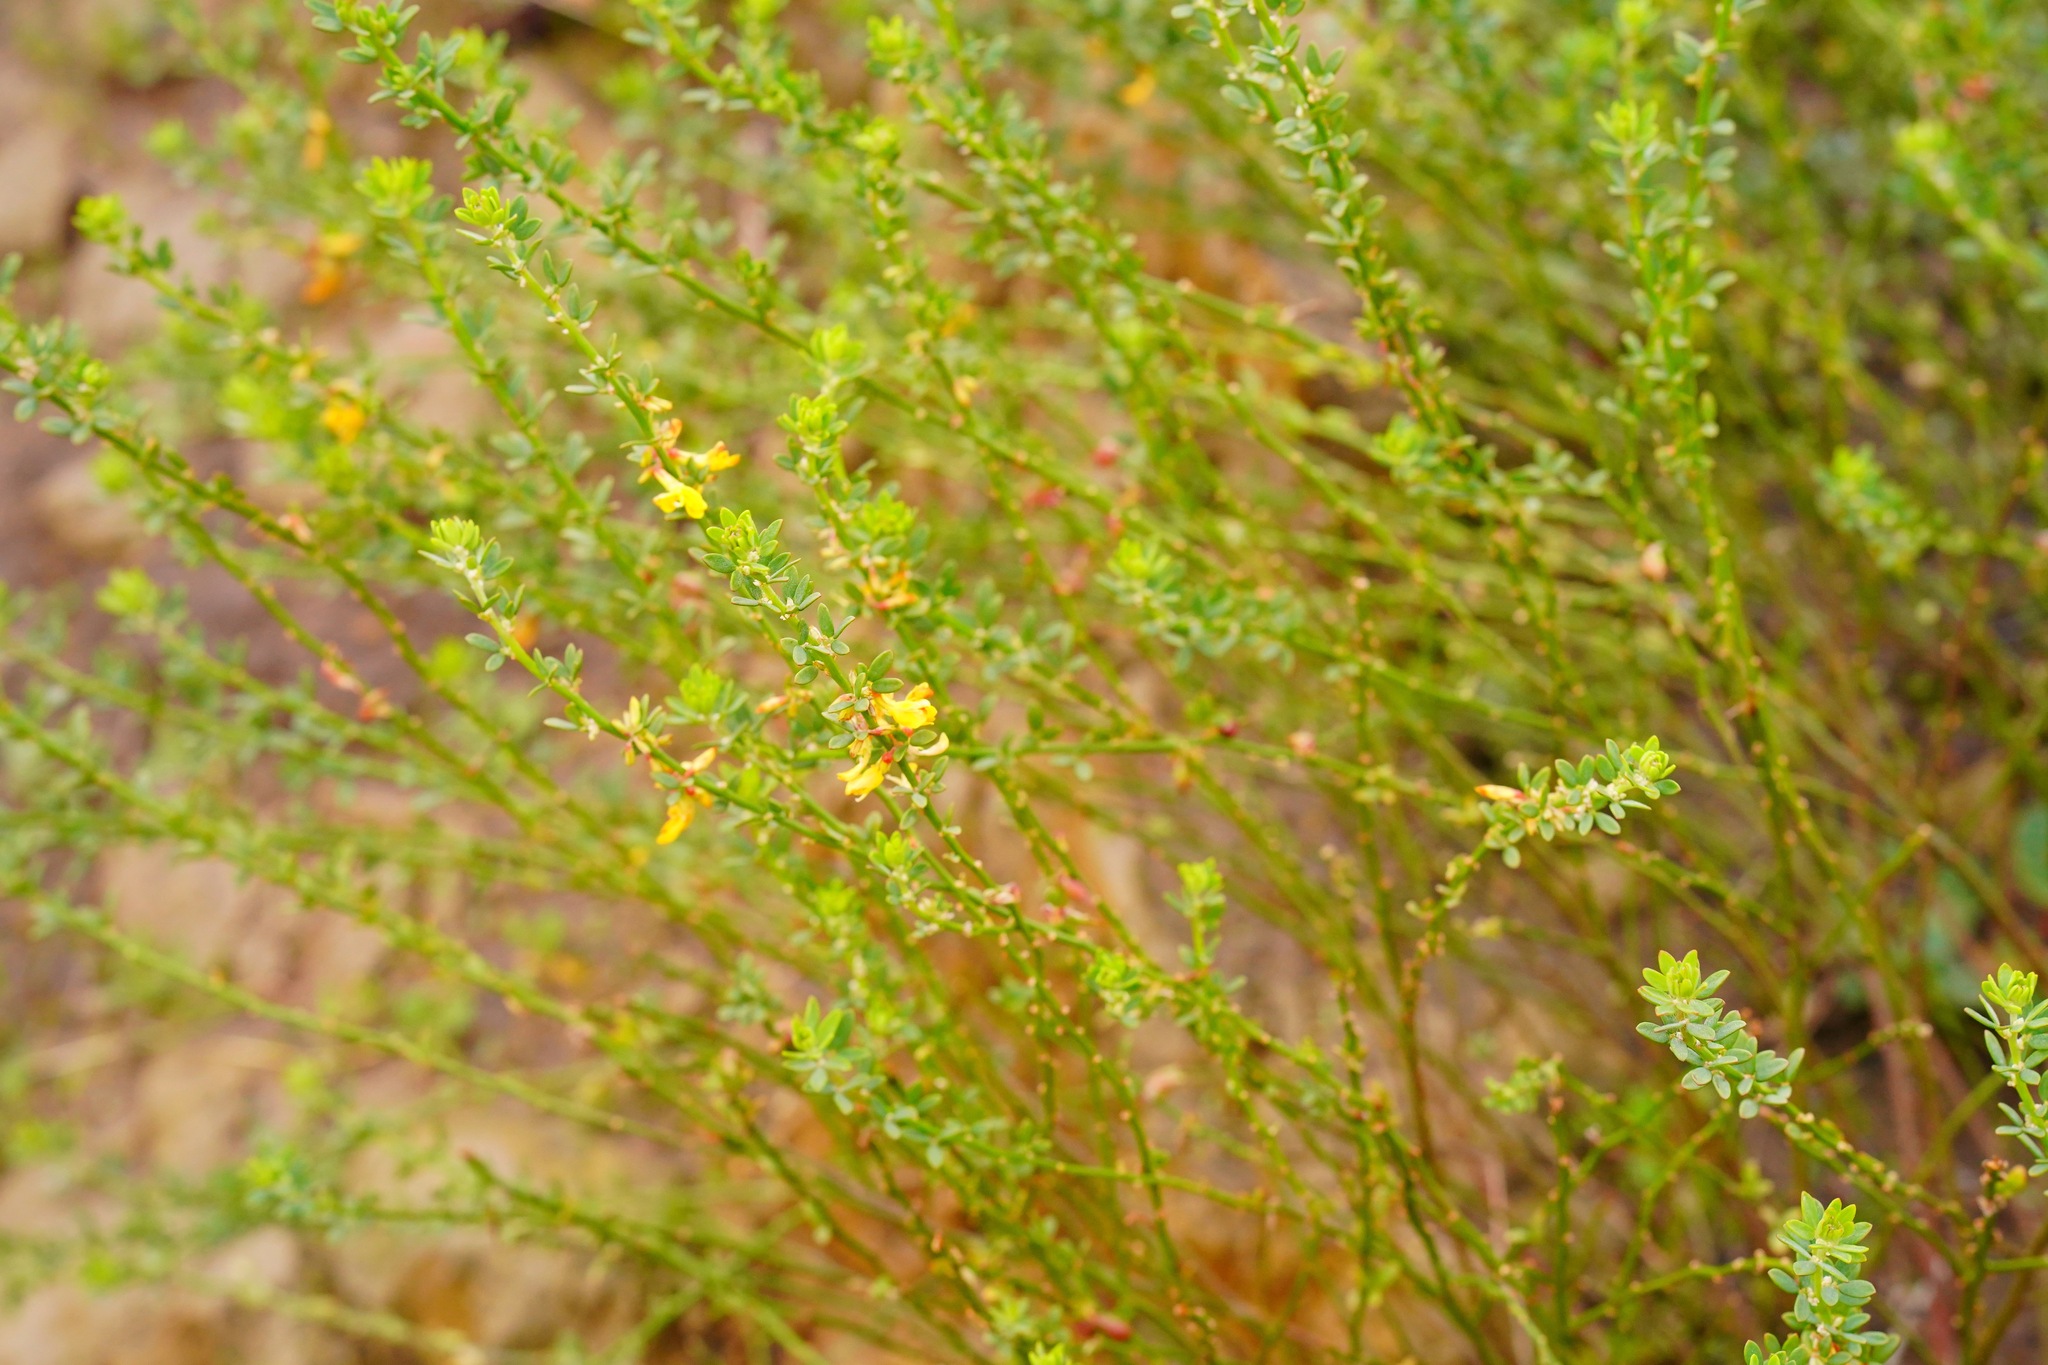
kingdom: Plantae
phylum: Tracheophyta
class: Magnoliopsida
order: Fabales
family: Fabaceae
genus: Acmispon
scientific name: Acmispon glaber
